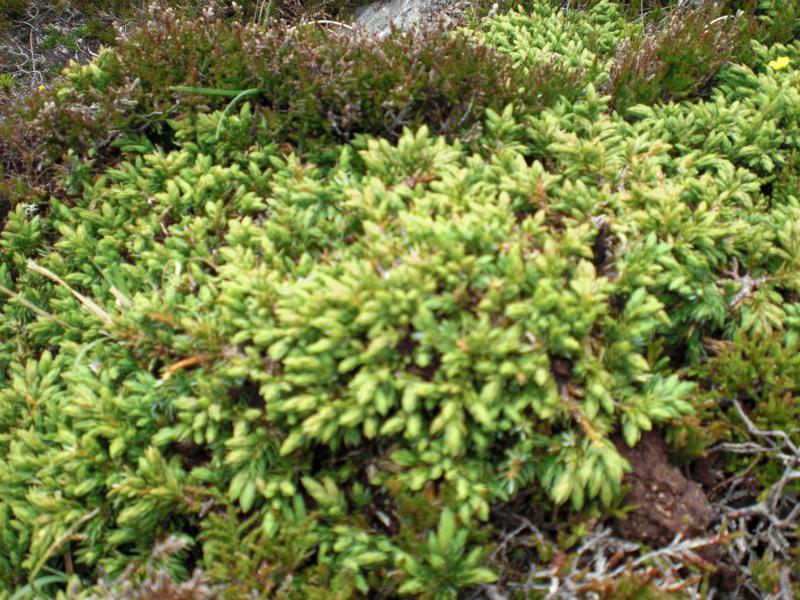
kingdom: Plantae
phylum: Tracheophyta
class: Pinopsida
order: Pinales
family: Cupressaceae
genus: Juniperus
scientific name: Juniperus communis
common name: Common juniper
